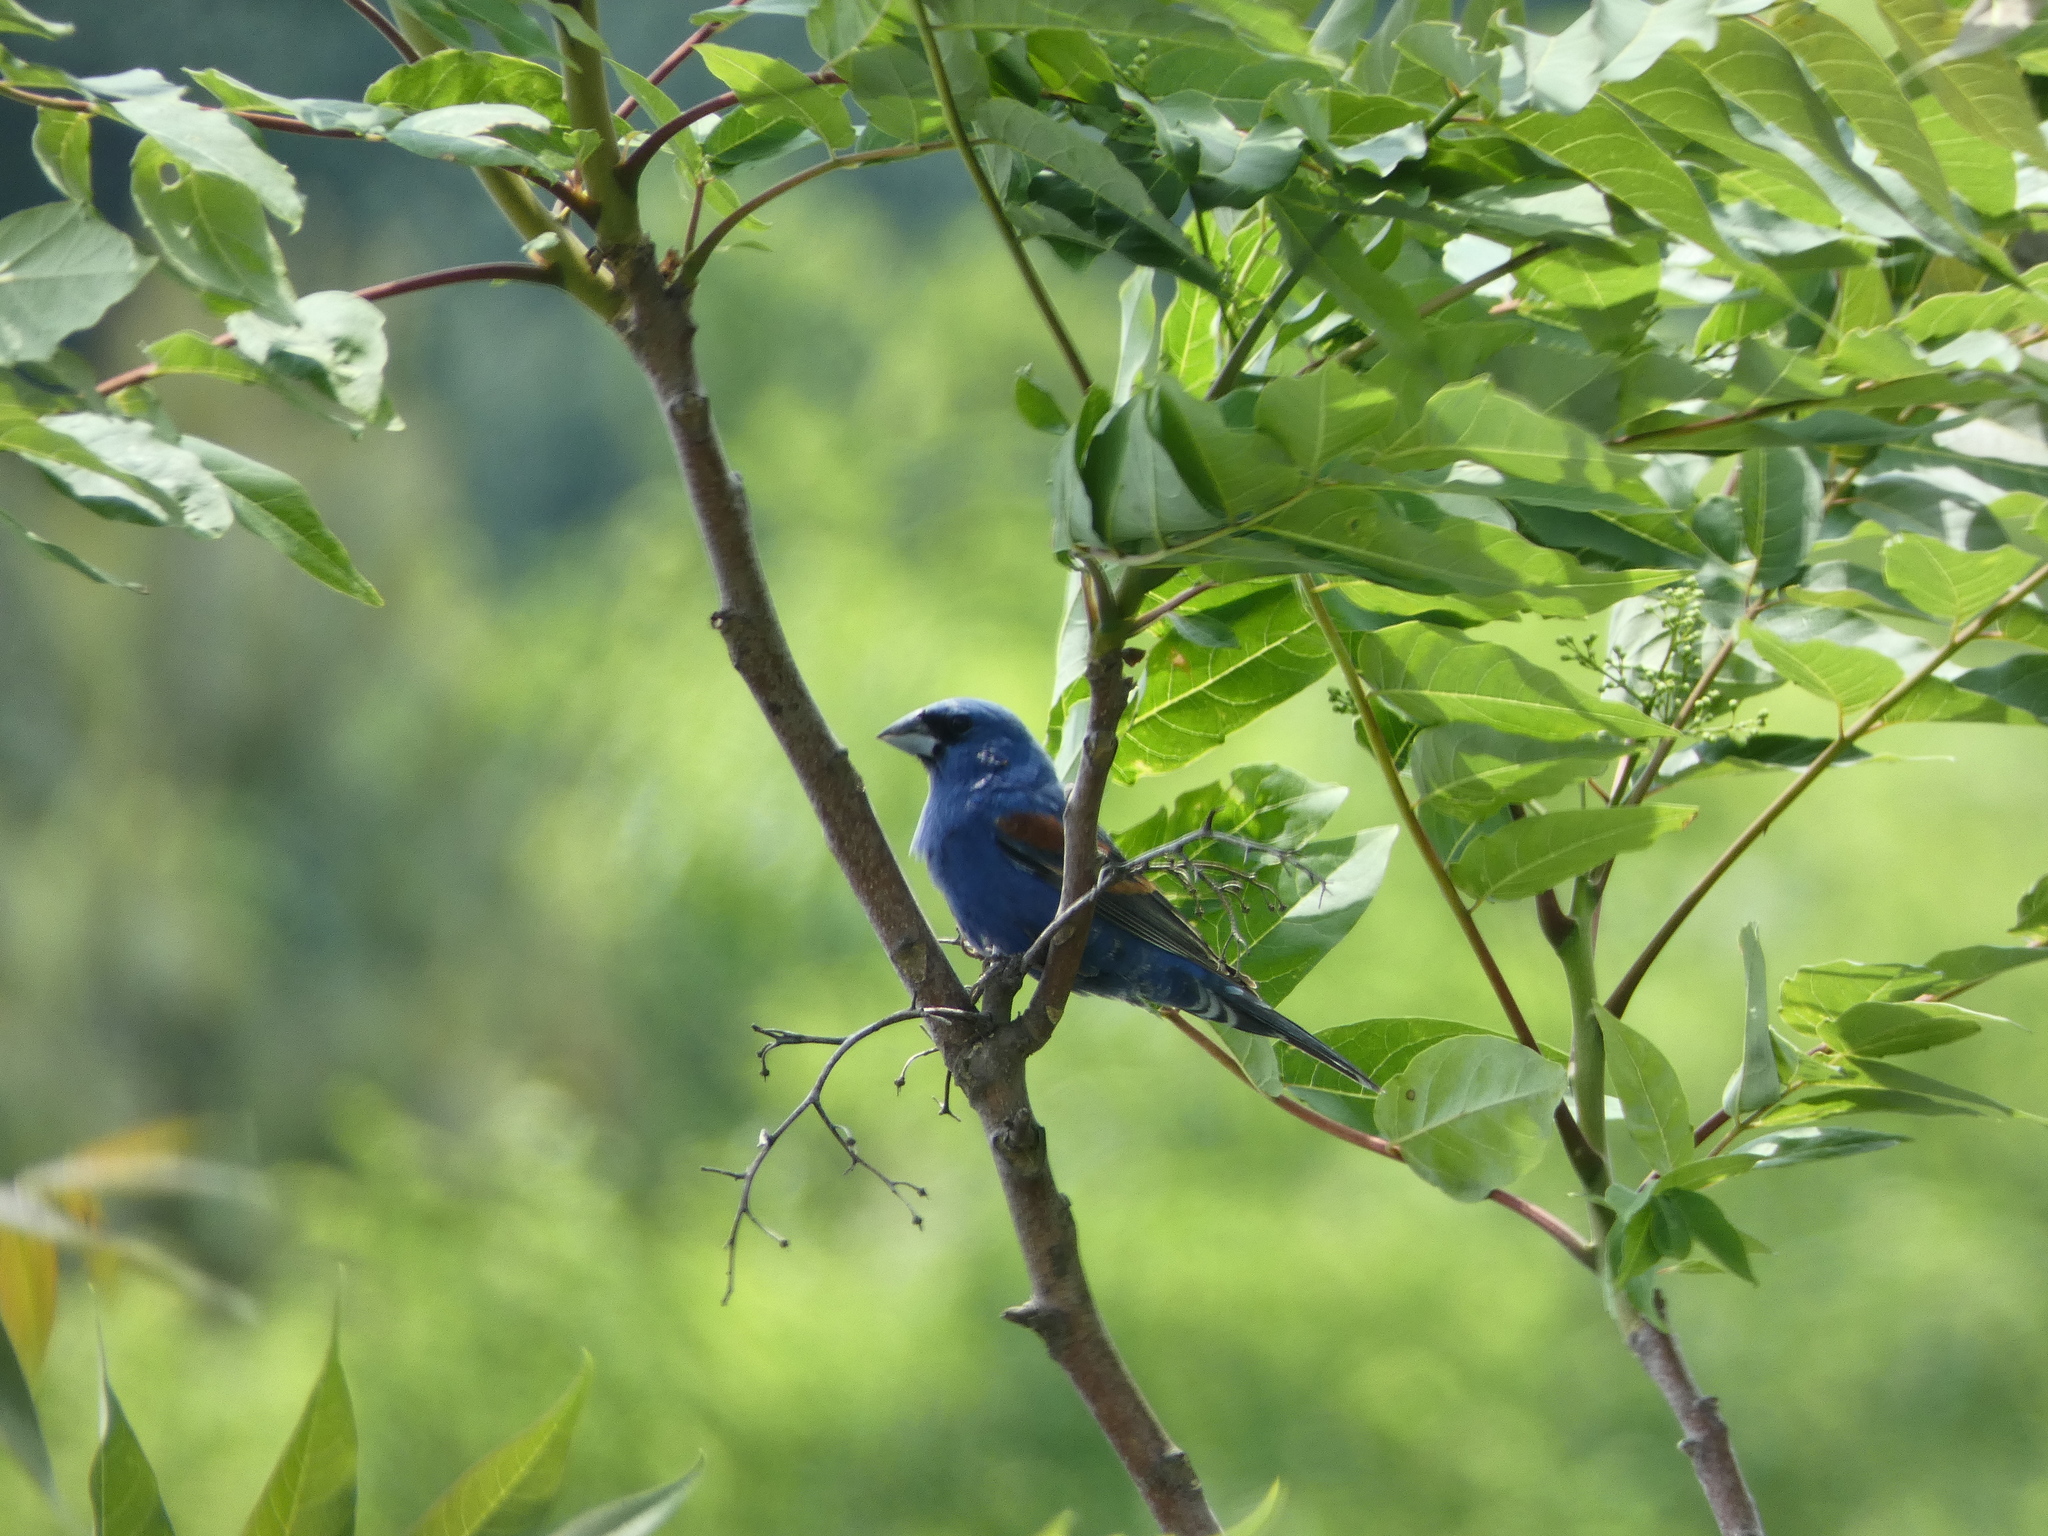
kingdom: Animalia
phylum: Chordata
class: Aves
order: Passeriformes
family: Cardinalidae
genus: Passerina
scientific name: Passerina caerulea
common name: Blue grosbeak
